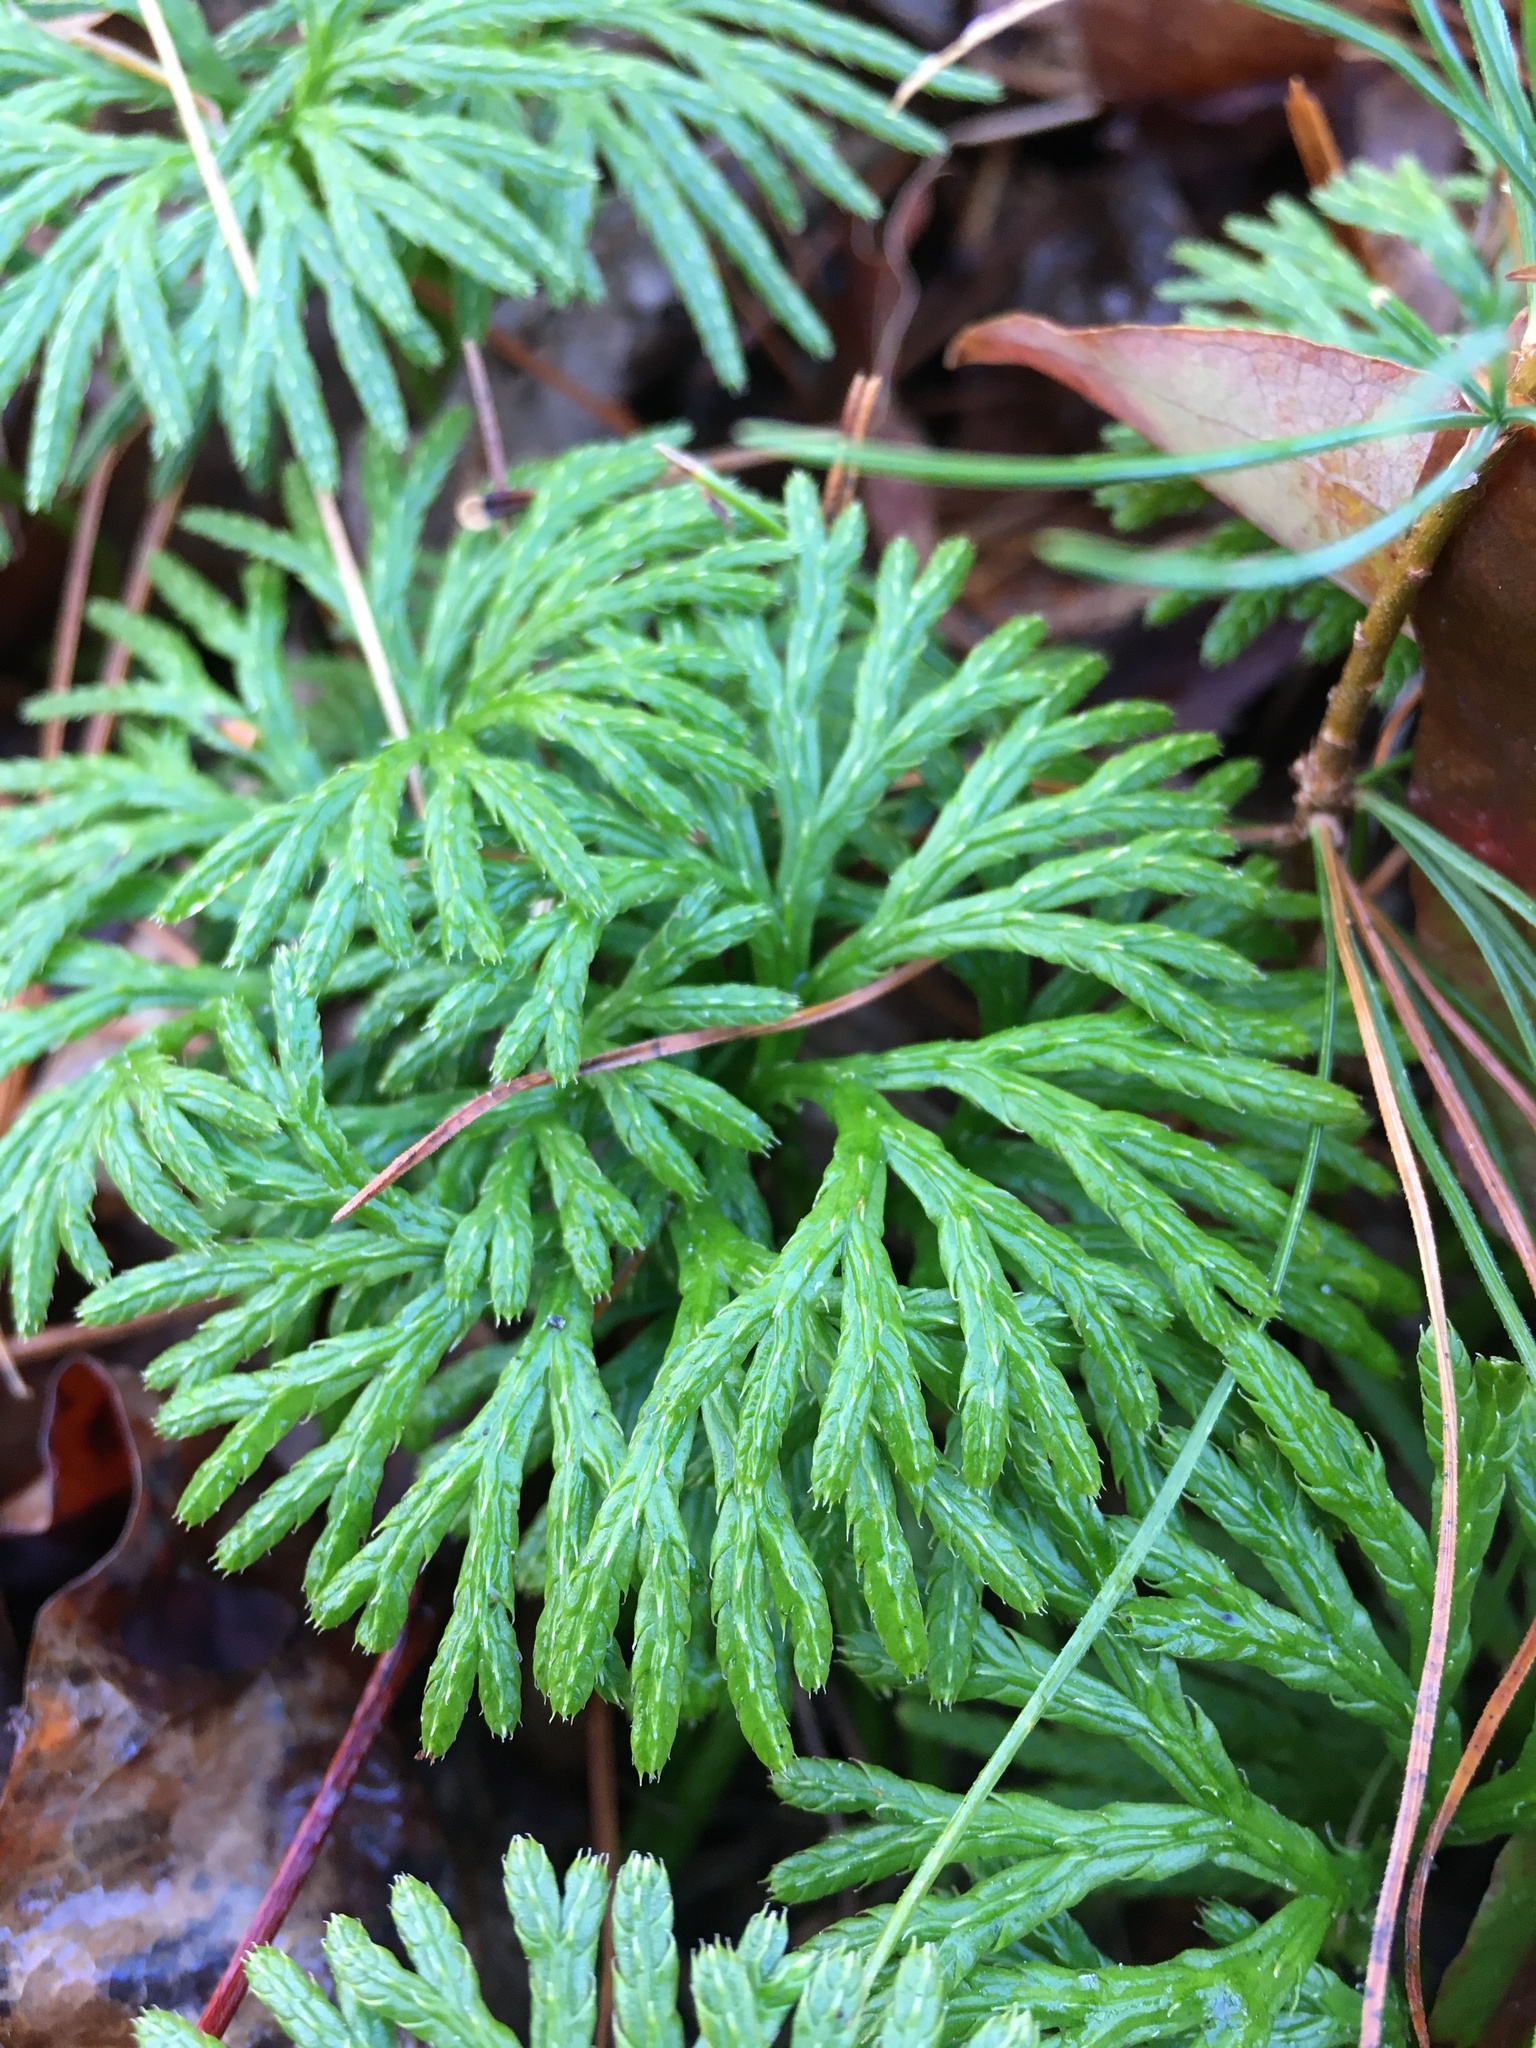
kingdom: Plantae
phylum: Tracheophyta
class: Lycopodiopsida
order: Lycopodiales
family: Lycopodiaceae
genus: Diphasiastrum
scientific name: Diphasiastrum digitatum
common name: Southern running-pine
